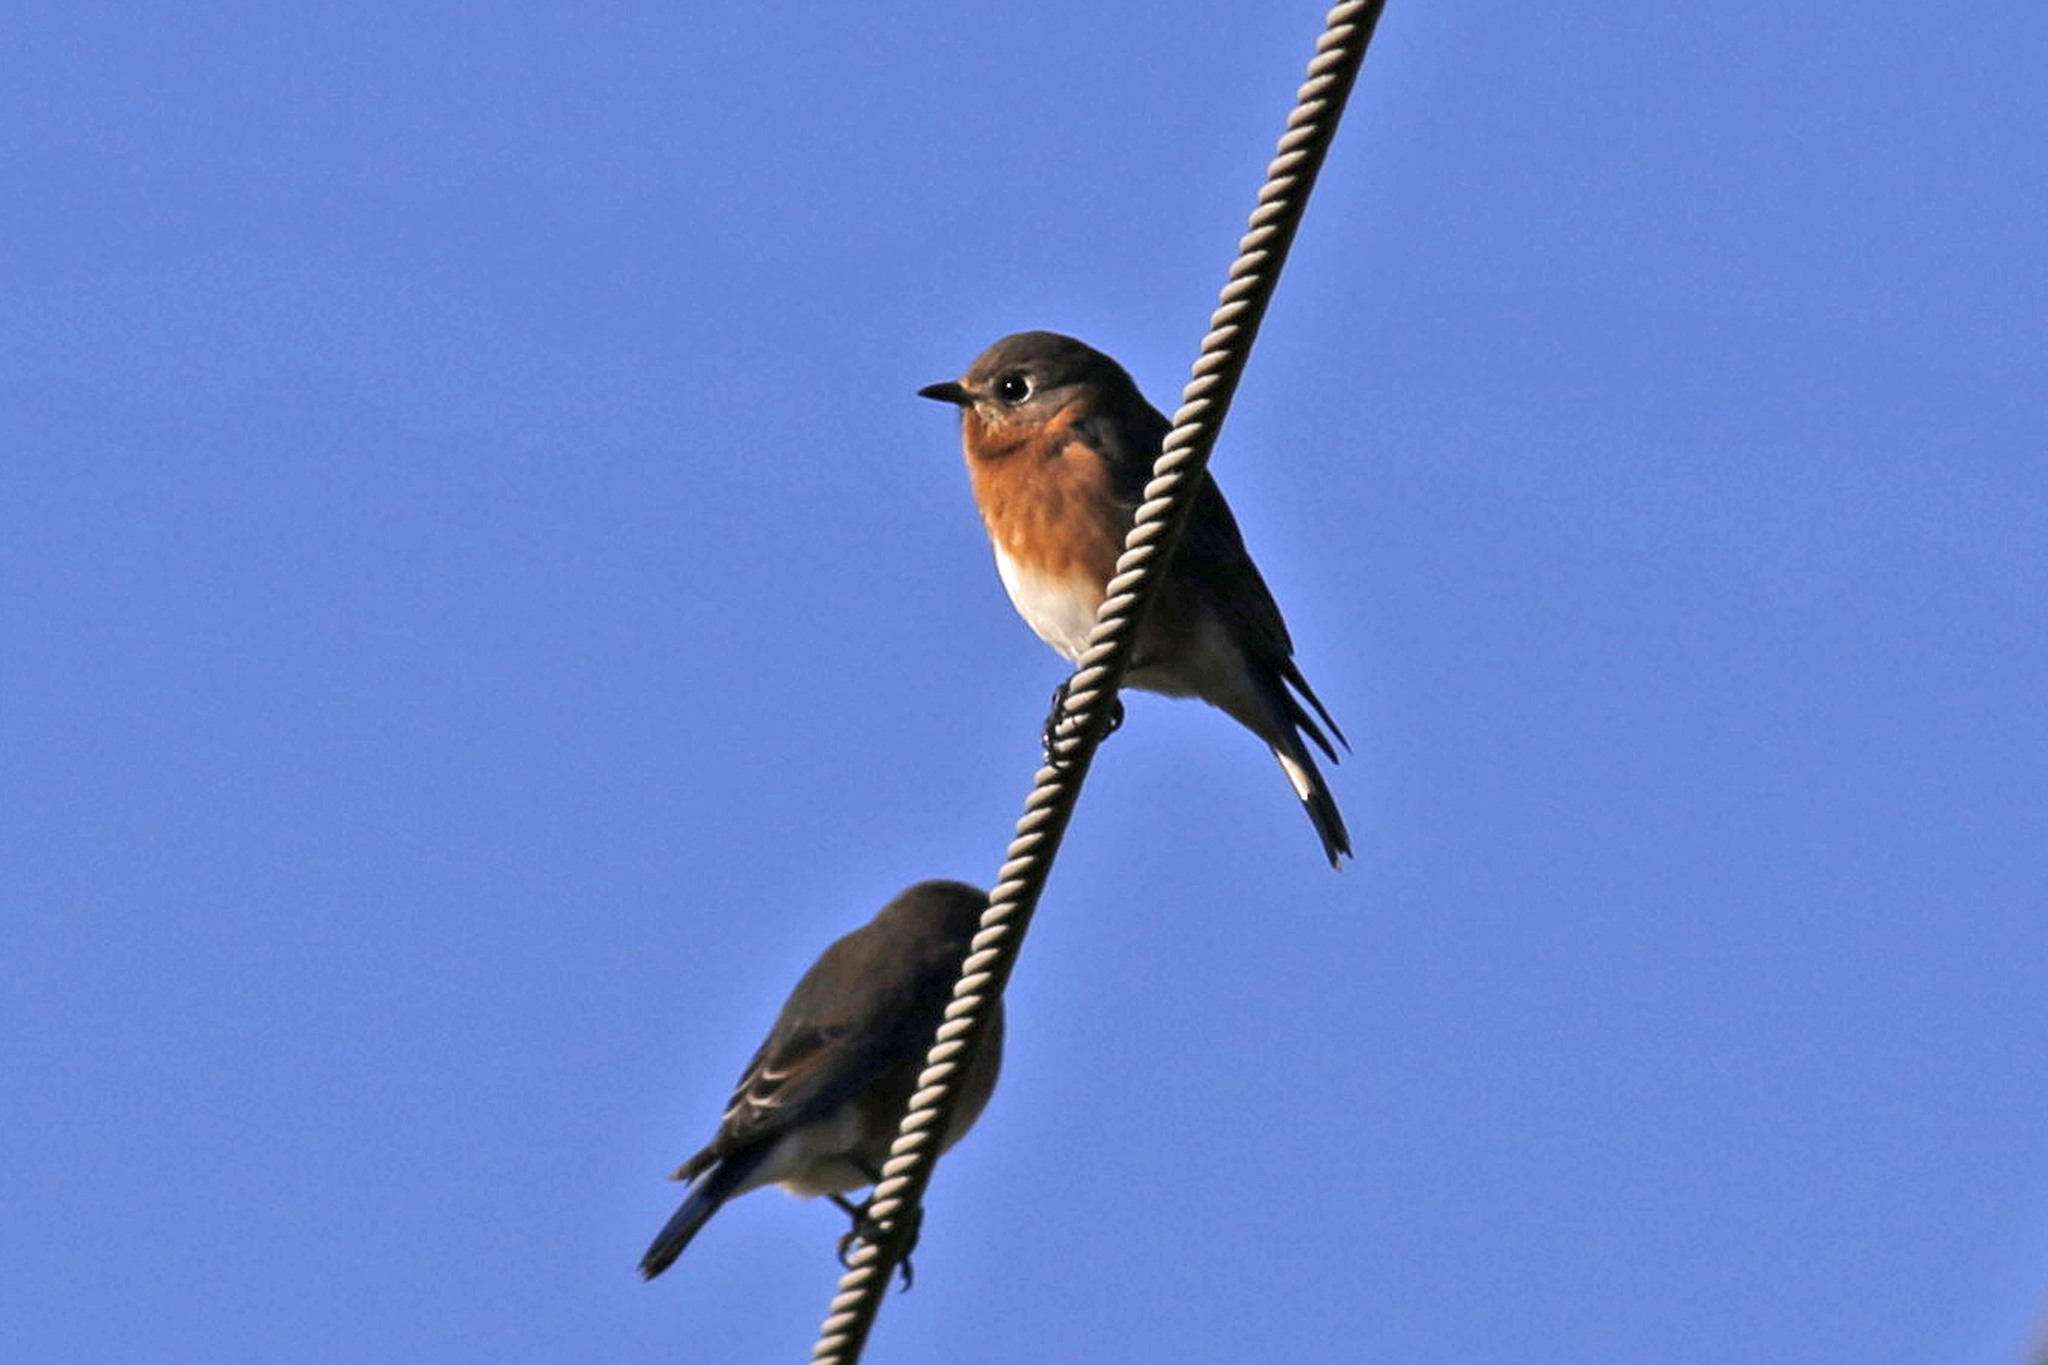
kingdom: Animalia
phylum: Chordata
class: Aves
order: Passeriformes
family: Turdidae
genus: Sialia
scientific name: Sialia sialis
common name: Eastern bluebird
